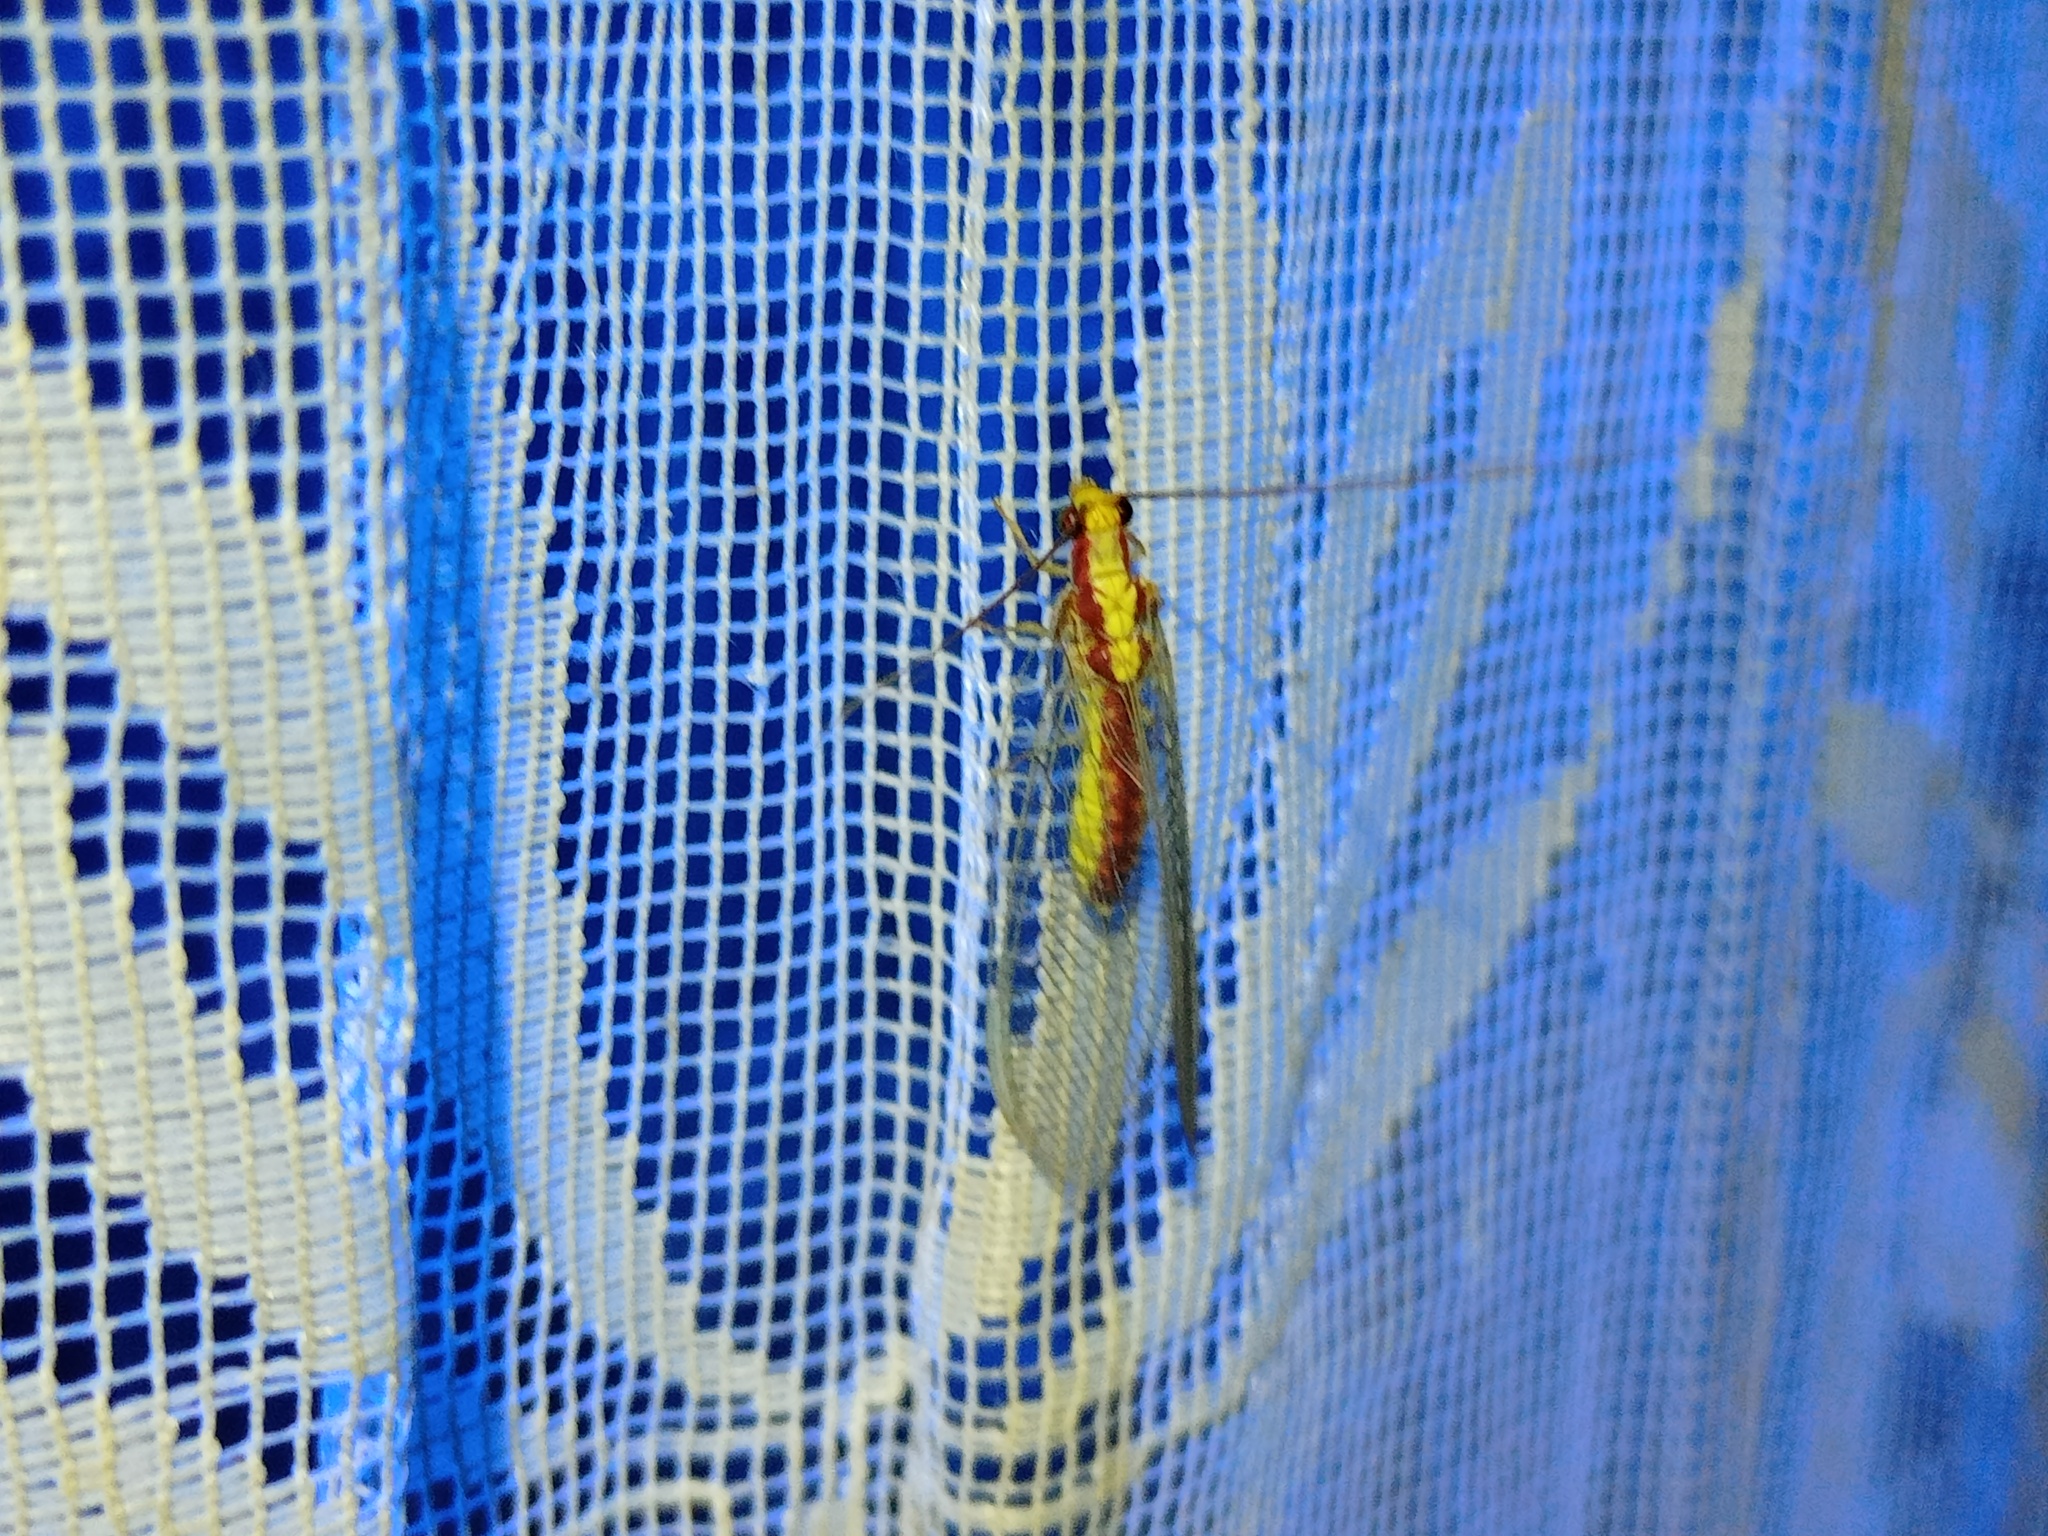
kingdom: Animalia
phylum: Arthropoda
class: Insecta
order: Neuroptera
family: Chrysopidae
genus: Italochrysa
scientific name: Italochrysa italica
